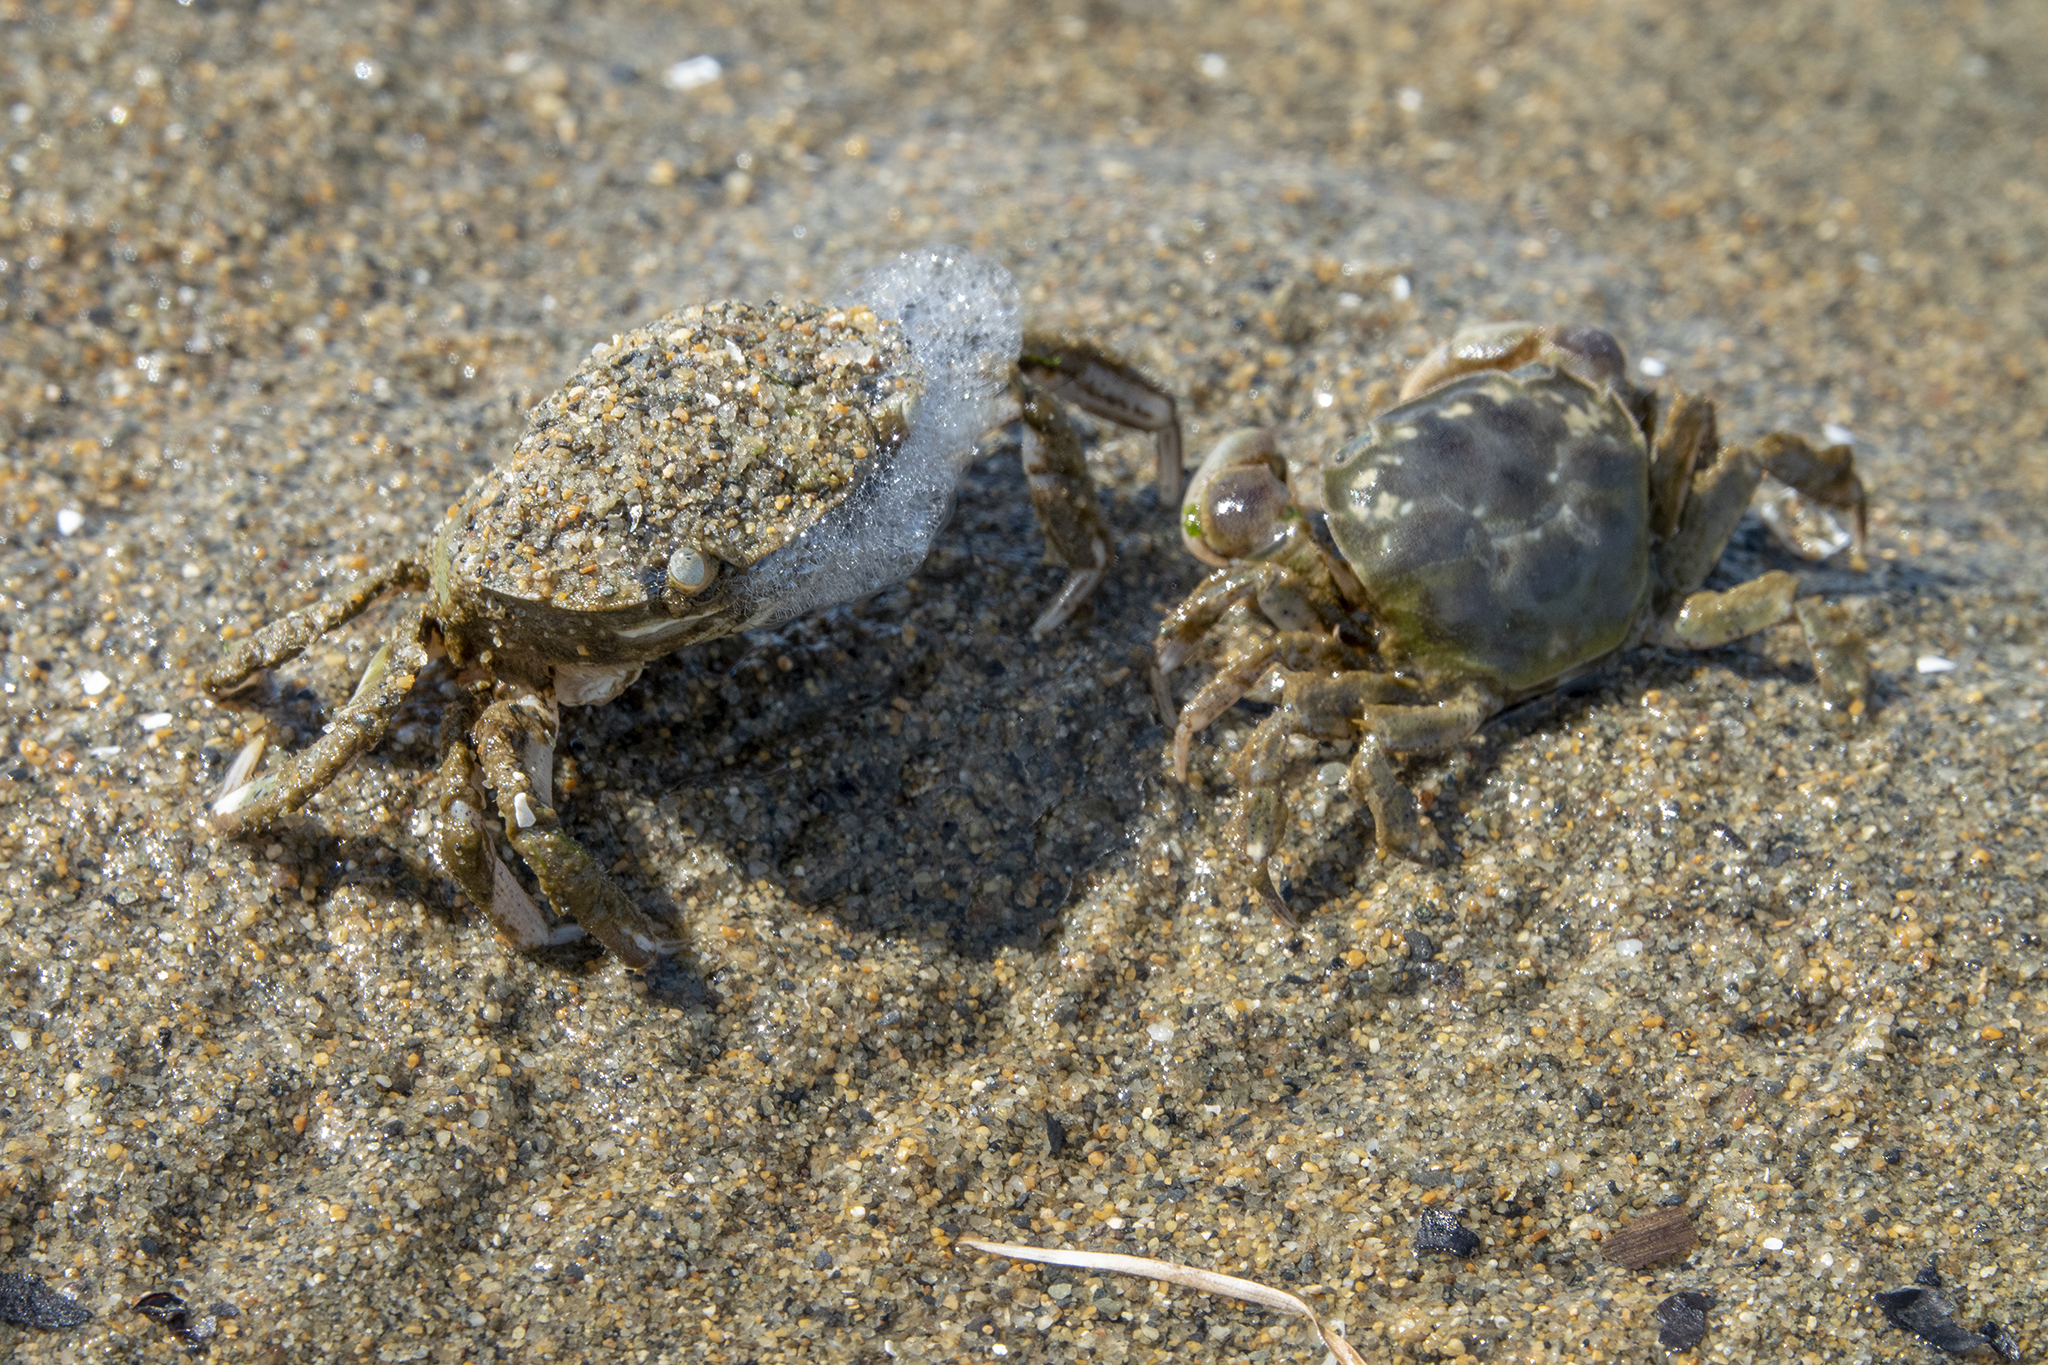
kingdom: Animalia
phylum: Arthropoda
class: Malacostraca
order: Decapoda
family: Varunidae
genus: Hemigrapsus
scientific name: Hemigrapsus crenulatus
